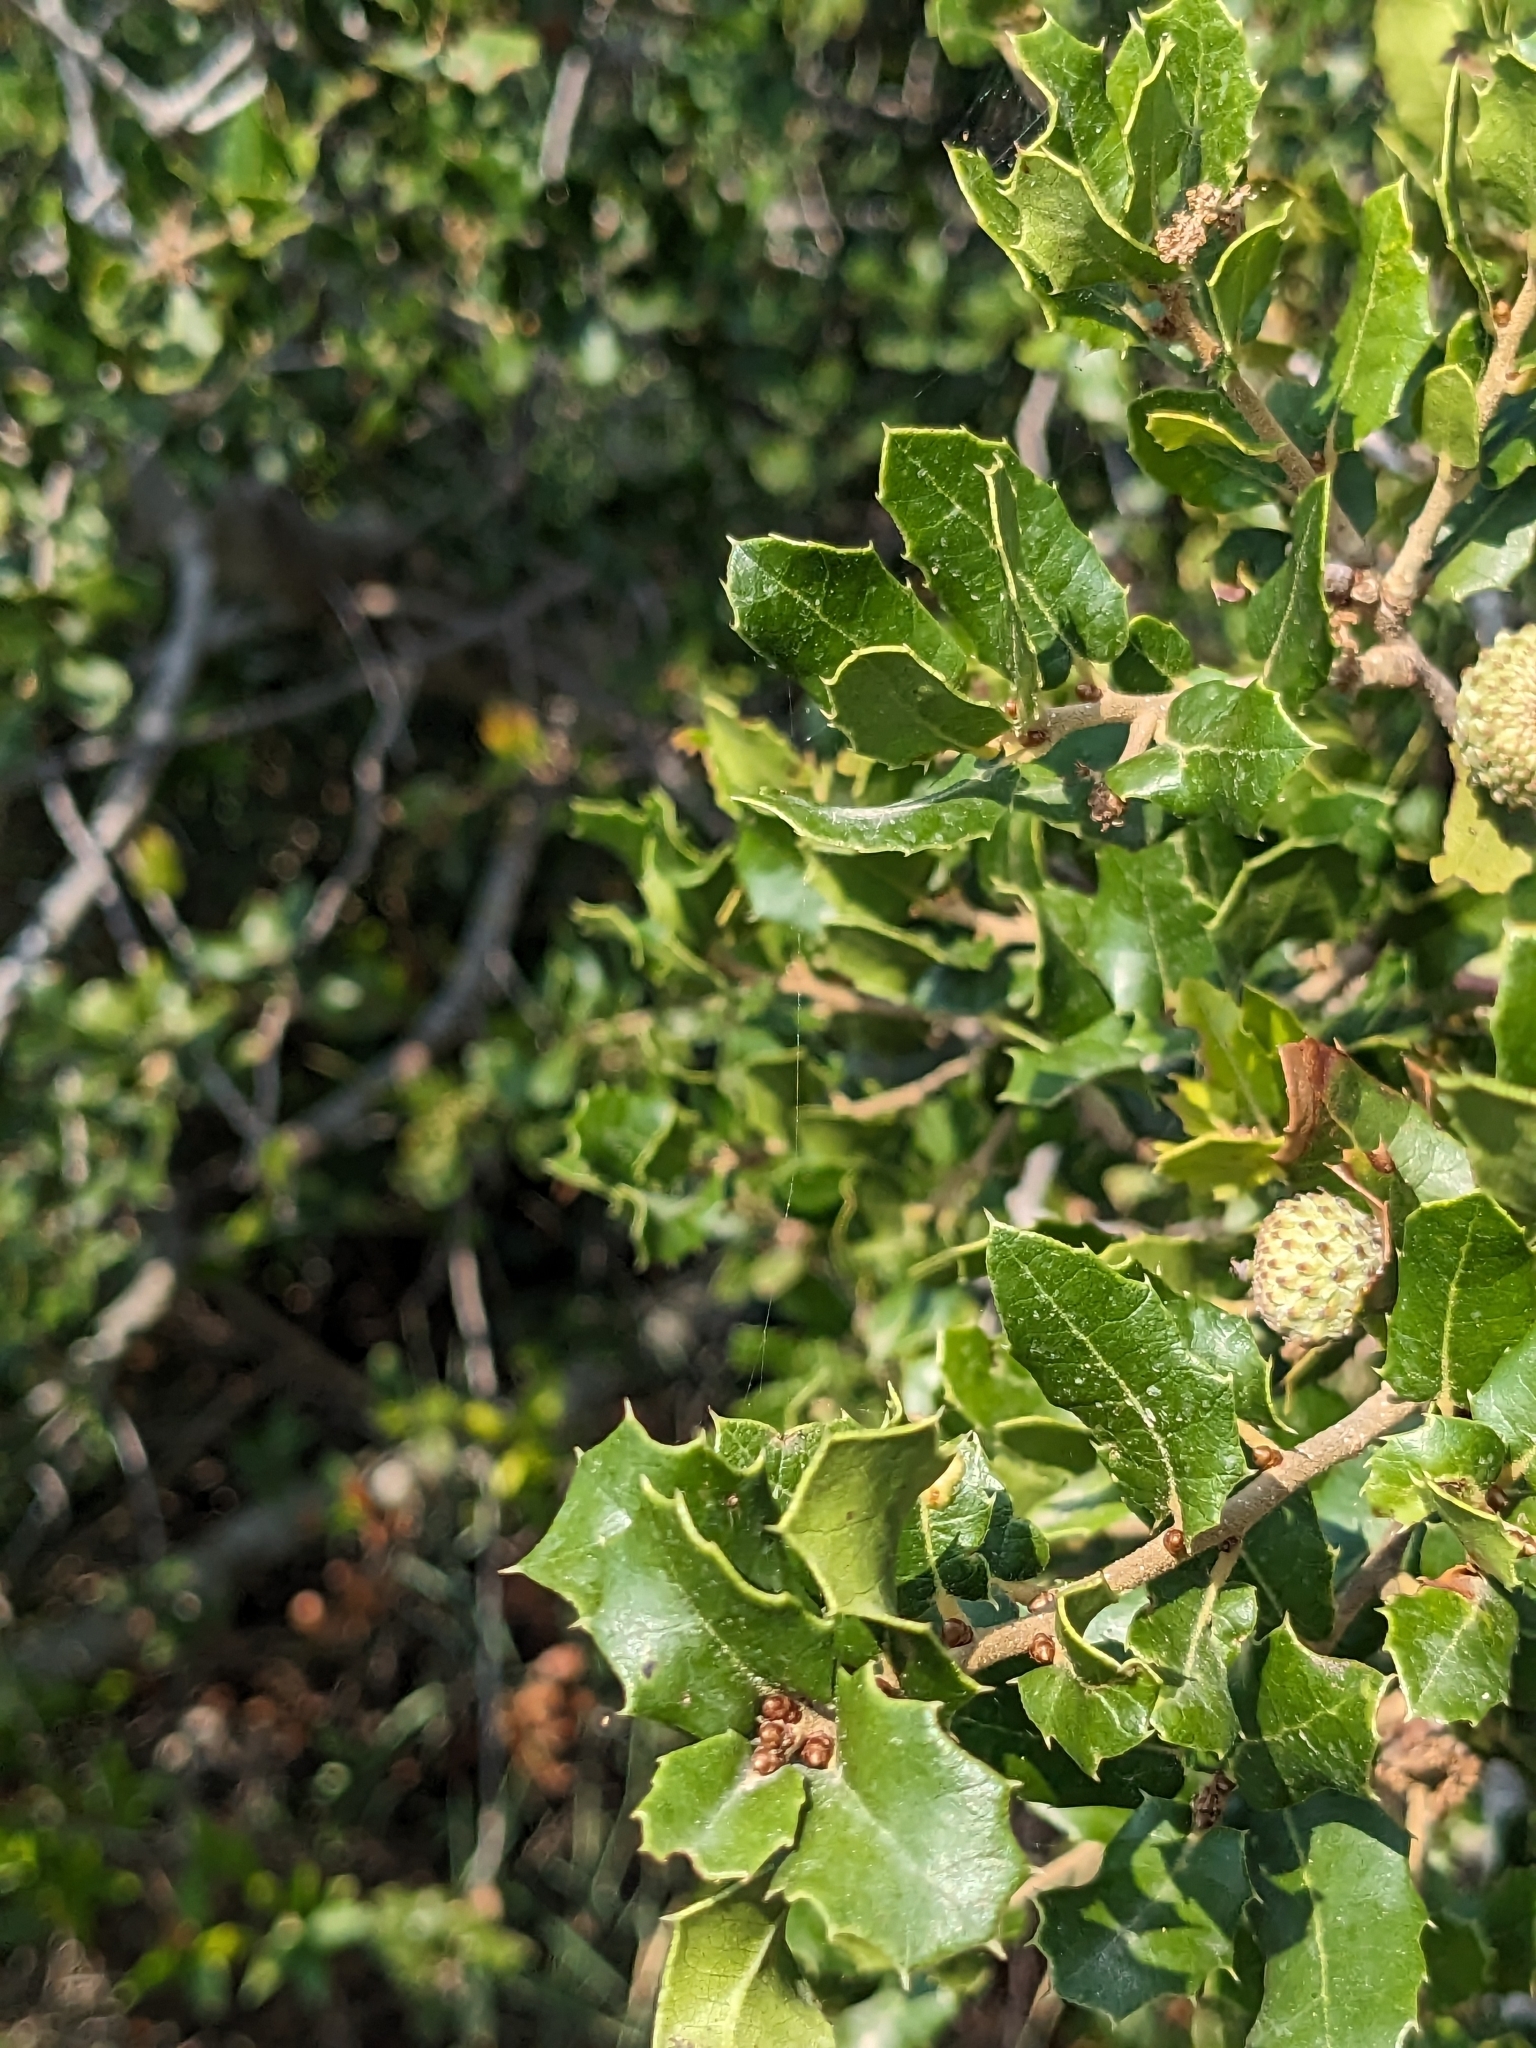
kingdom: Plantae
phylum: Tracheophyta
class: Magnoliopsida
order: Fagales
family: Fagaceae
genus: Quercus
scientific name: Quercus coccifera
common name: Kermes oak
